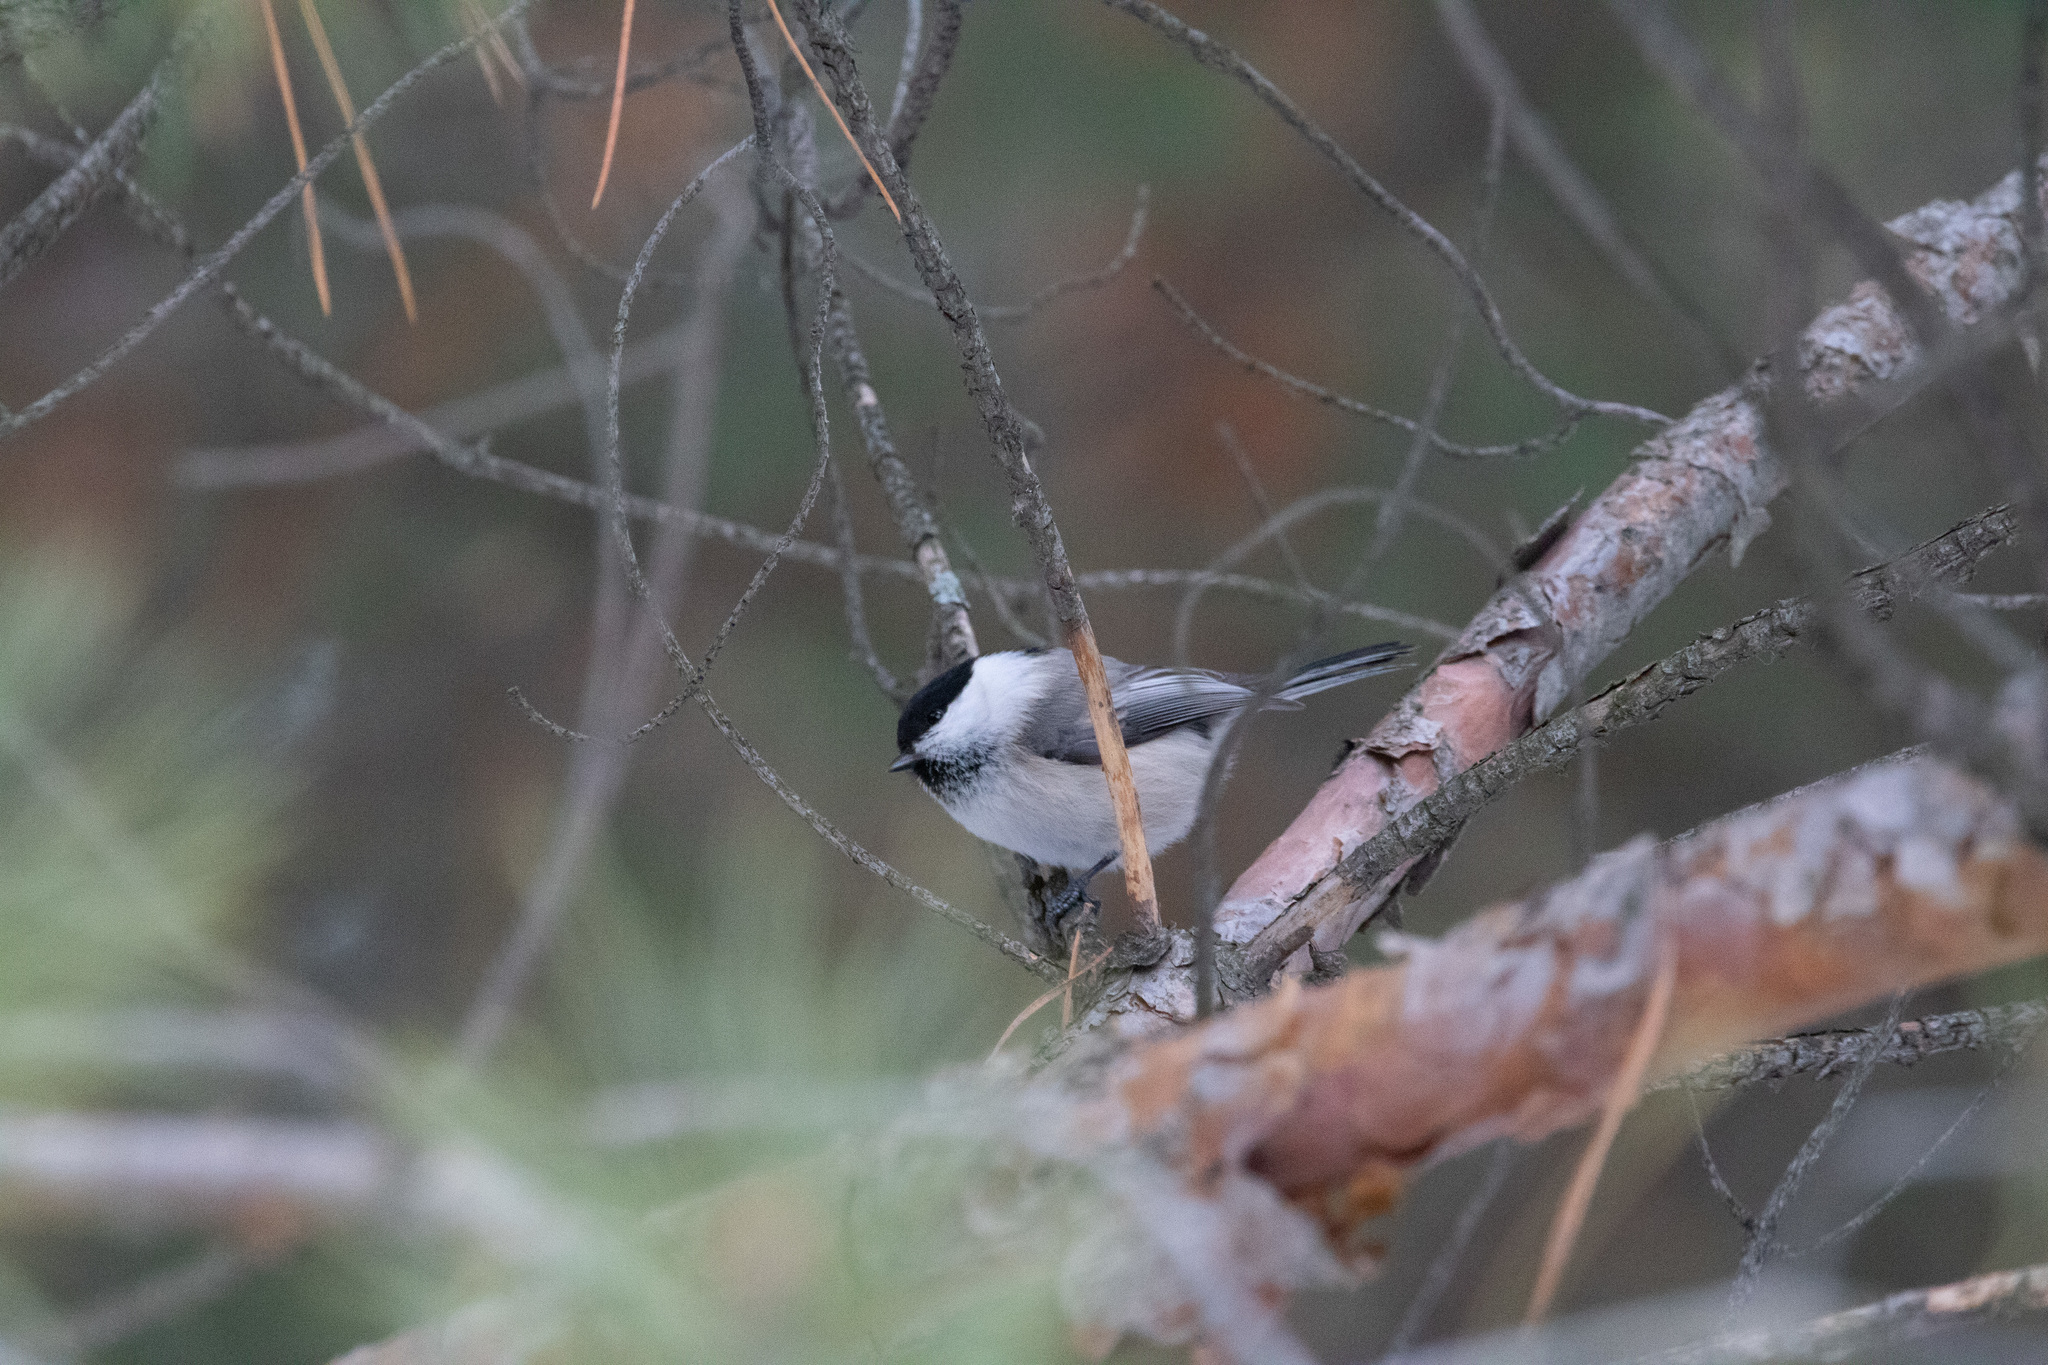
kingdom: Animalia
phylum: Chordata
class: Aves
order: Passeriformes
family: Paridae
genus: Poecile
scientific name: Poecile montanus
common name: Willow tit
